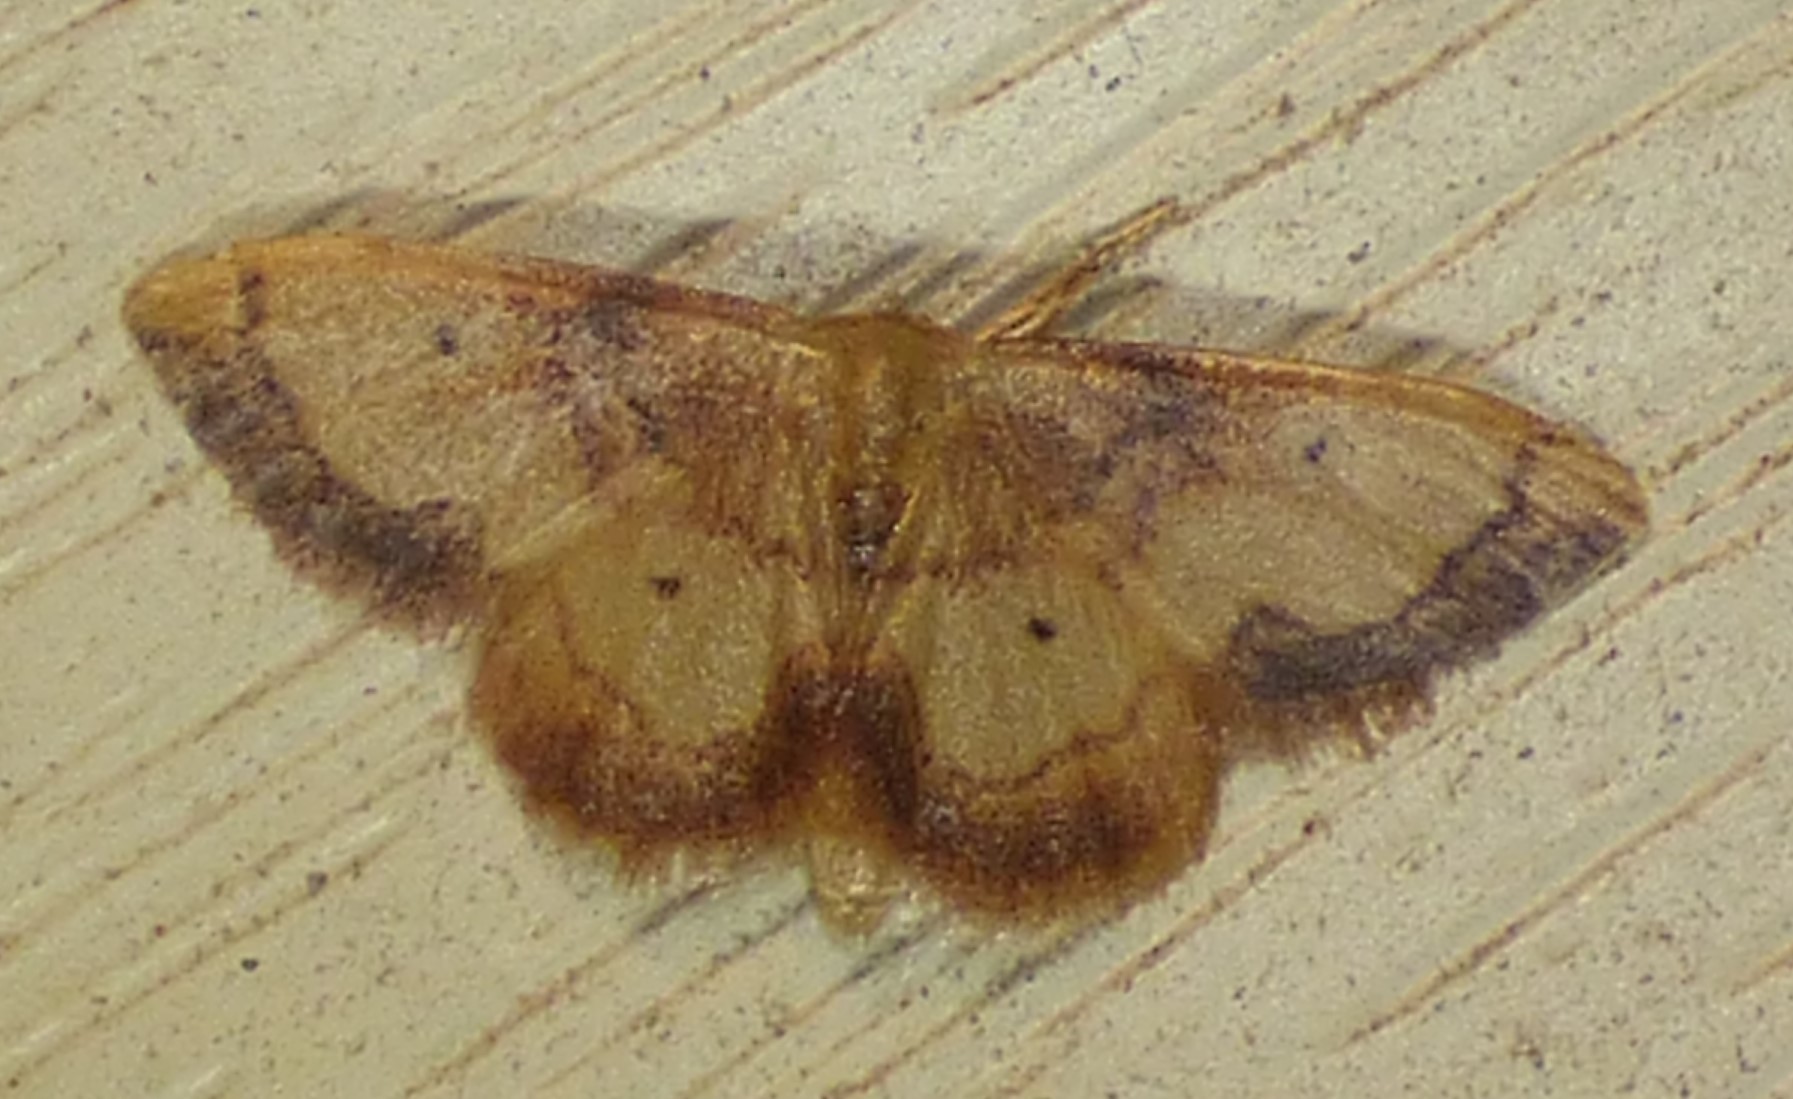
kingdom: Animalia
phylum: Arthropoda
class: Insecta
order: Lepidoptera
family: Geometridae
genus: Idaea
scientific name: Idaea demissaria
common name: Red-bordered wave
